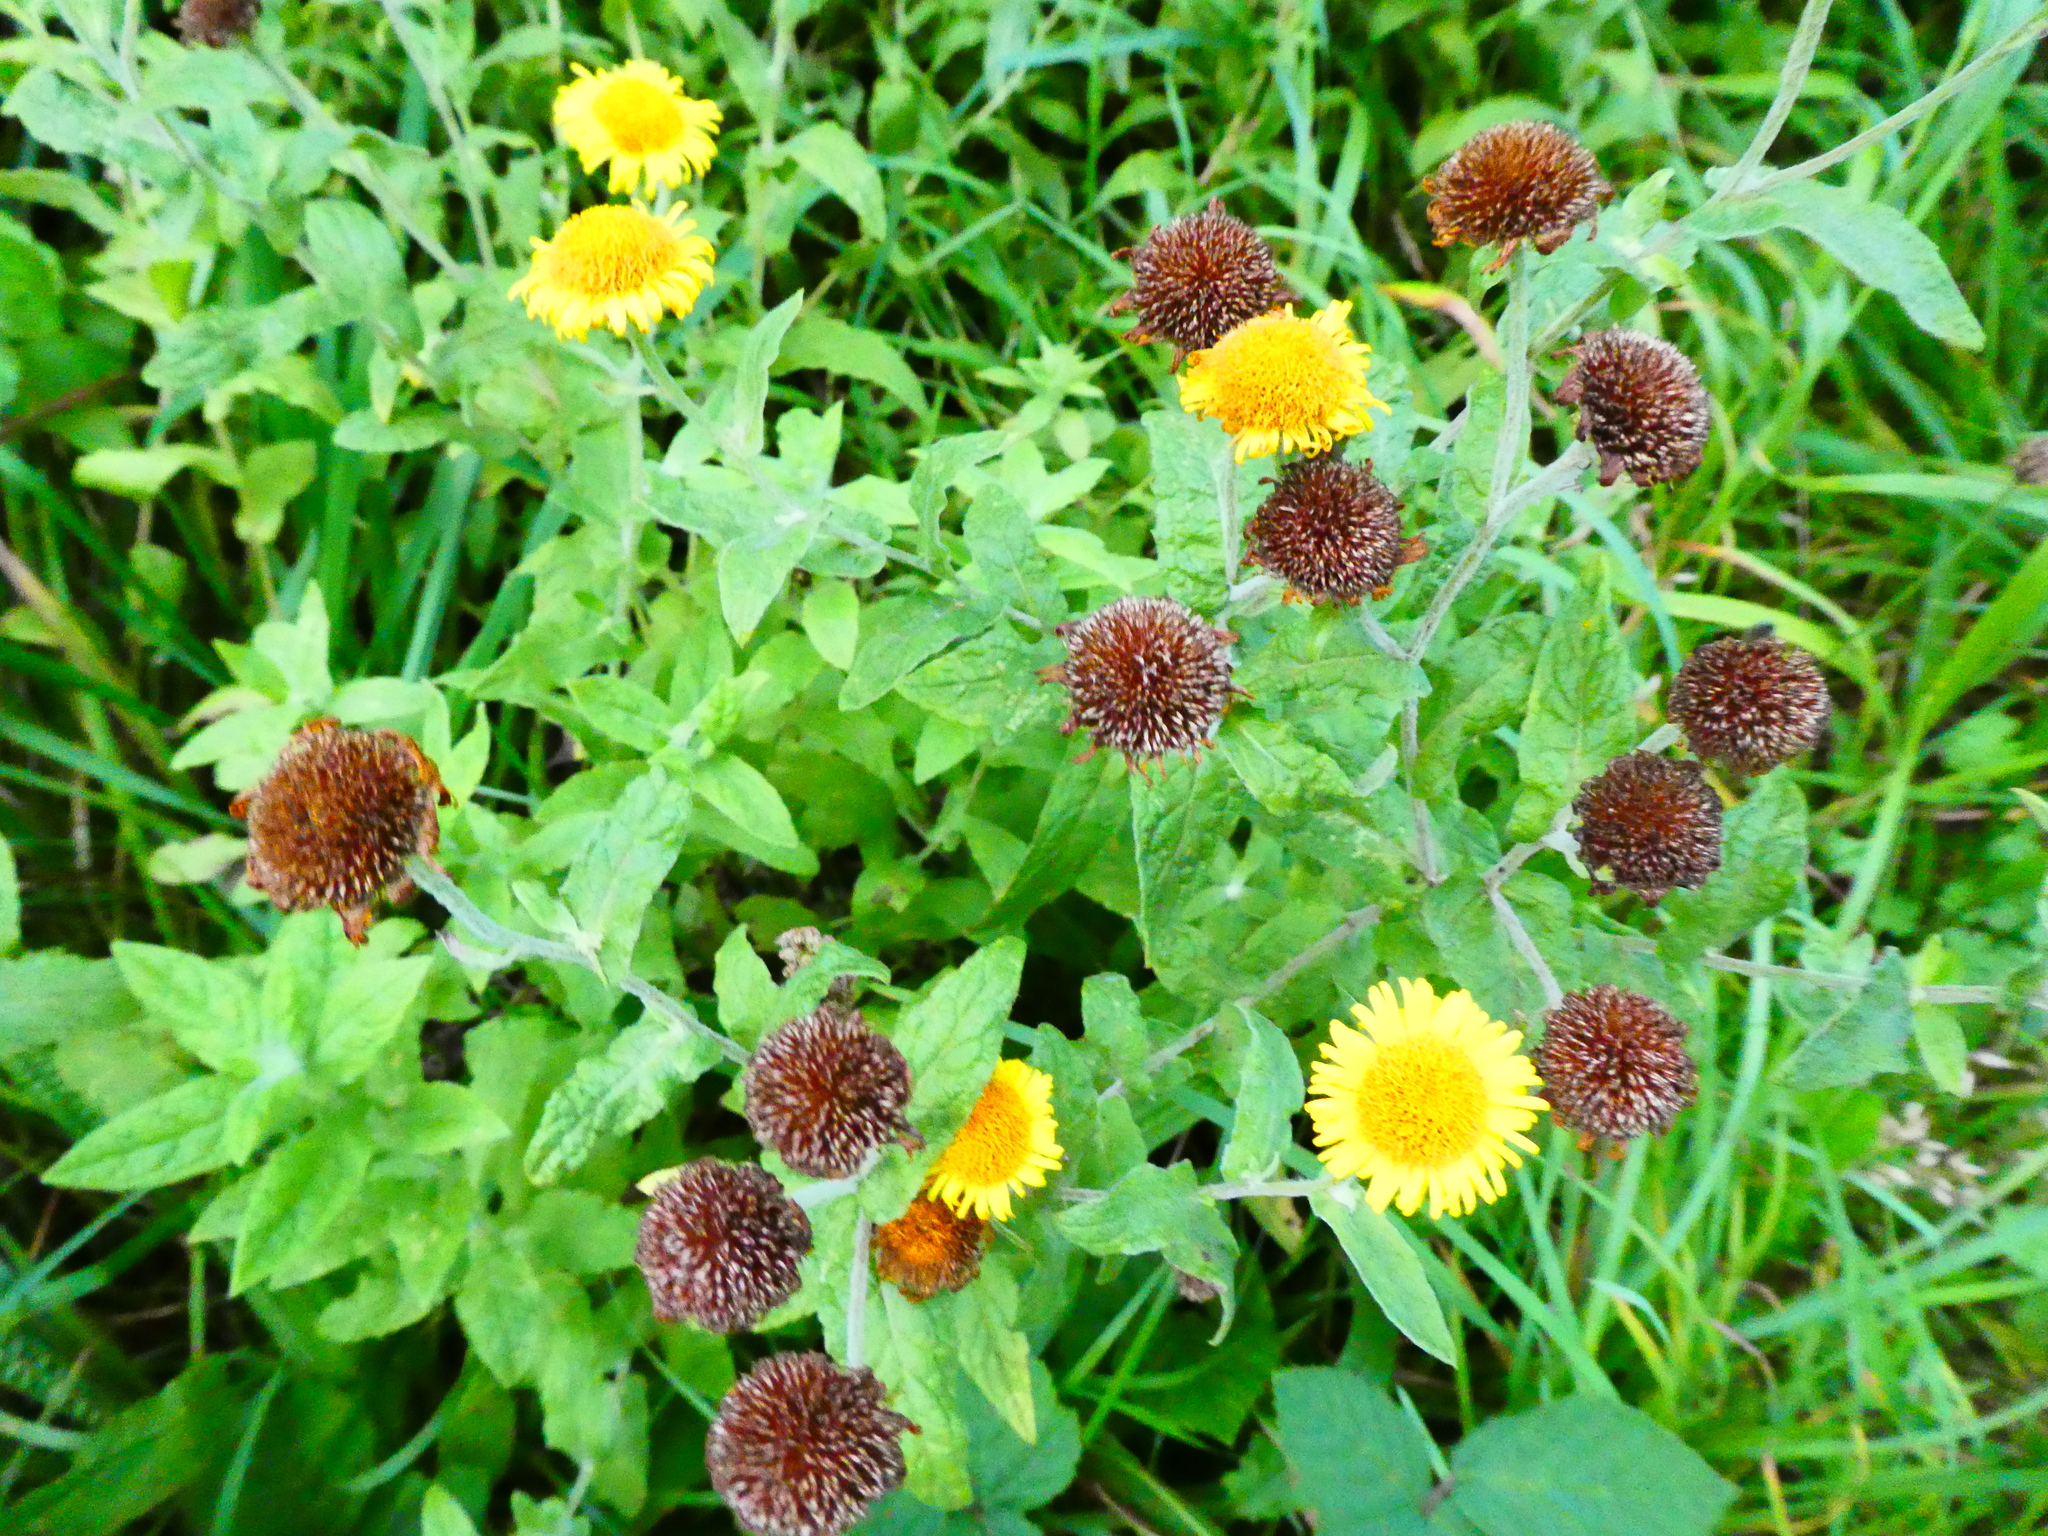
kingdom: Plantae
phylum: Tracheophyta
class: Magnoliopsida
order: Asterales
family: Asteraceae
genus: Pulicaria
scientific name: Pulicaria dysenterica
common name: Common fleabane
